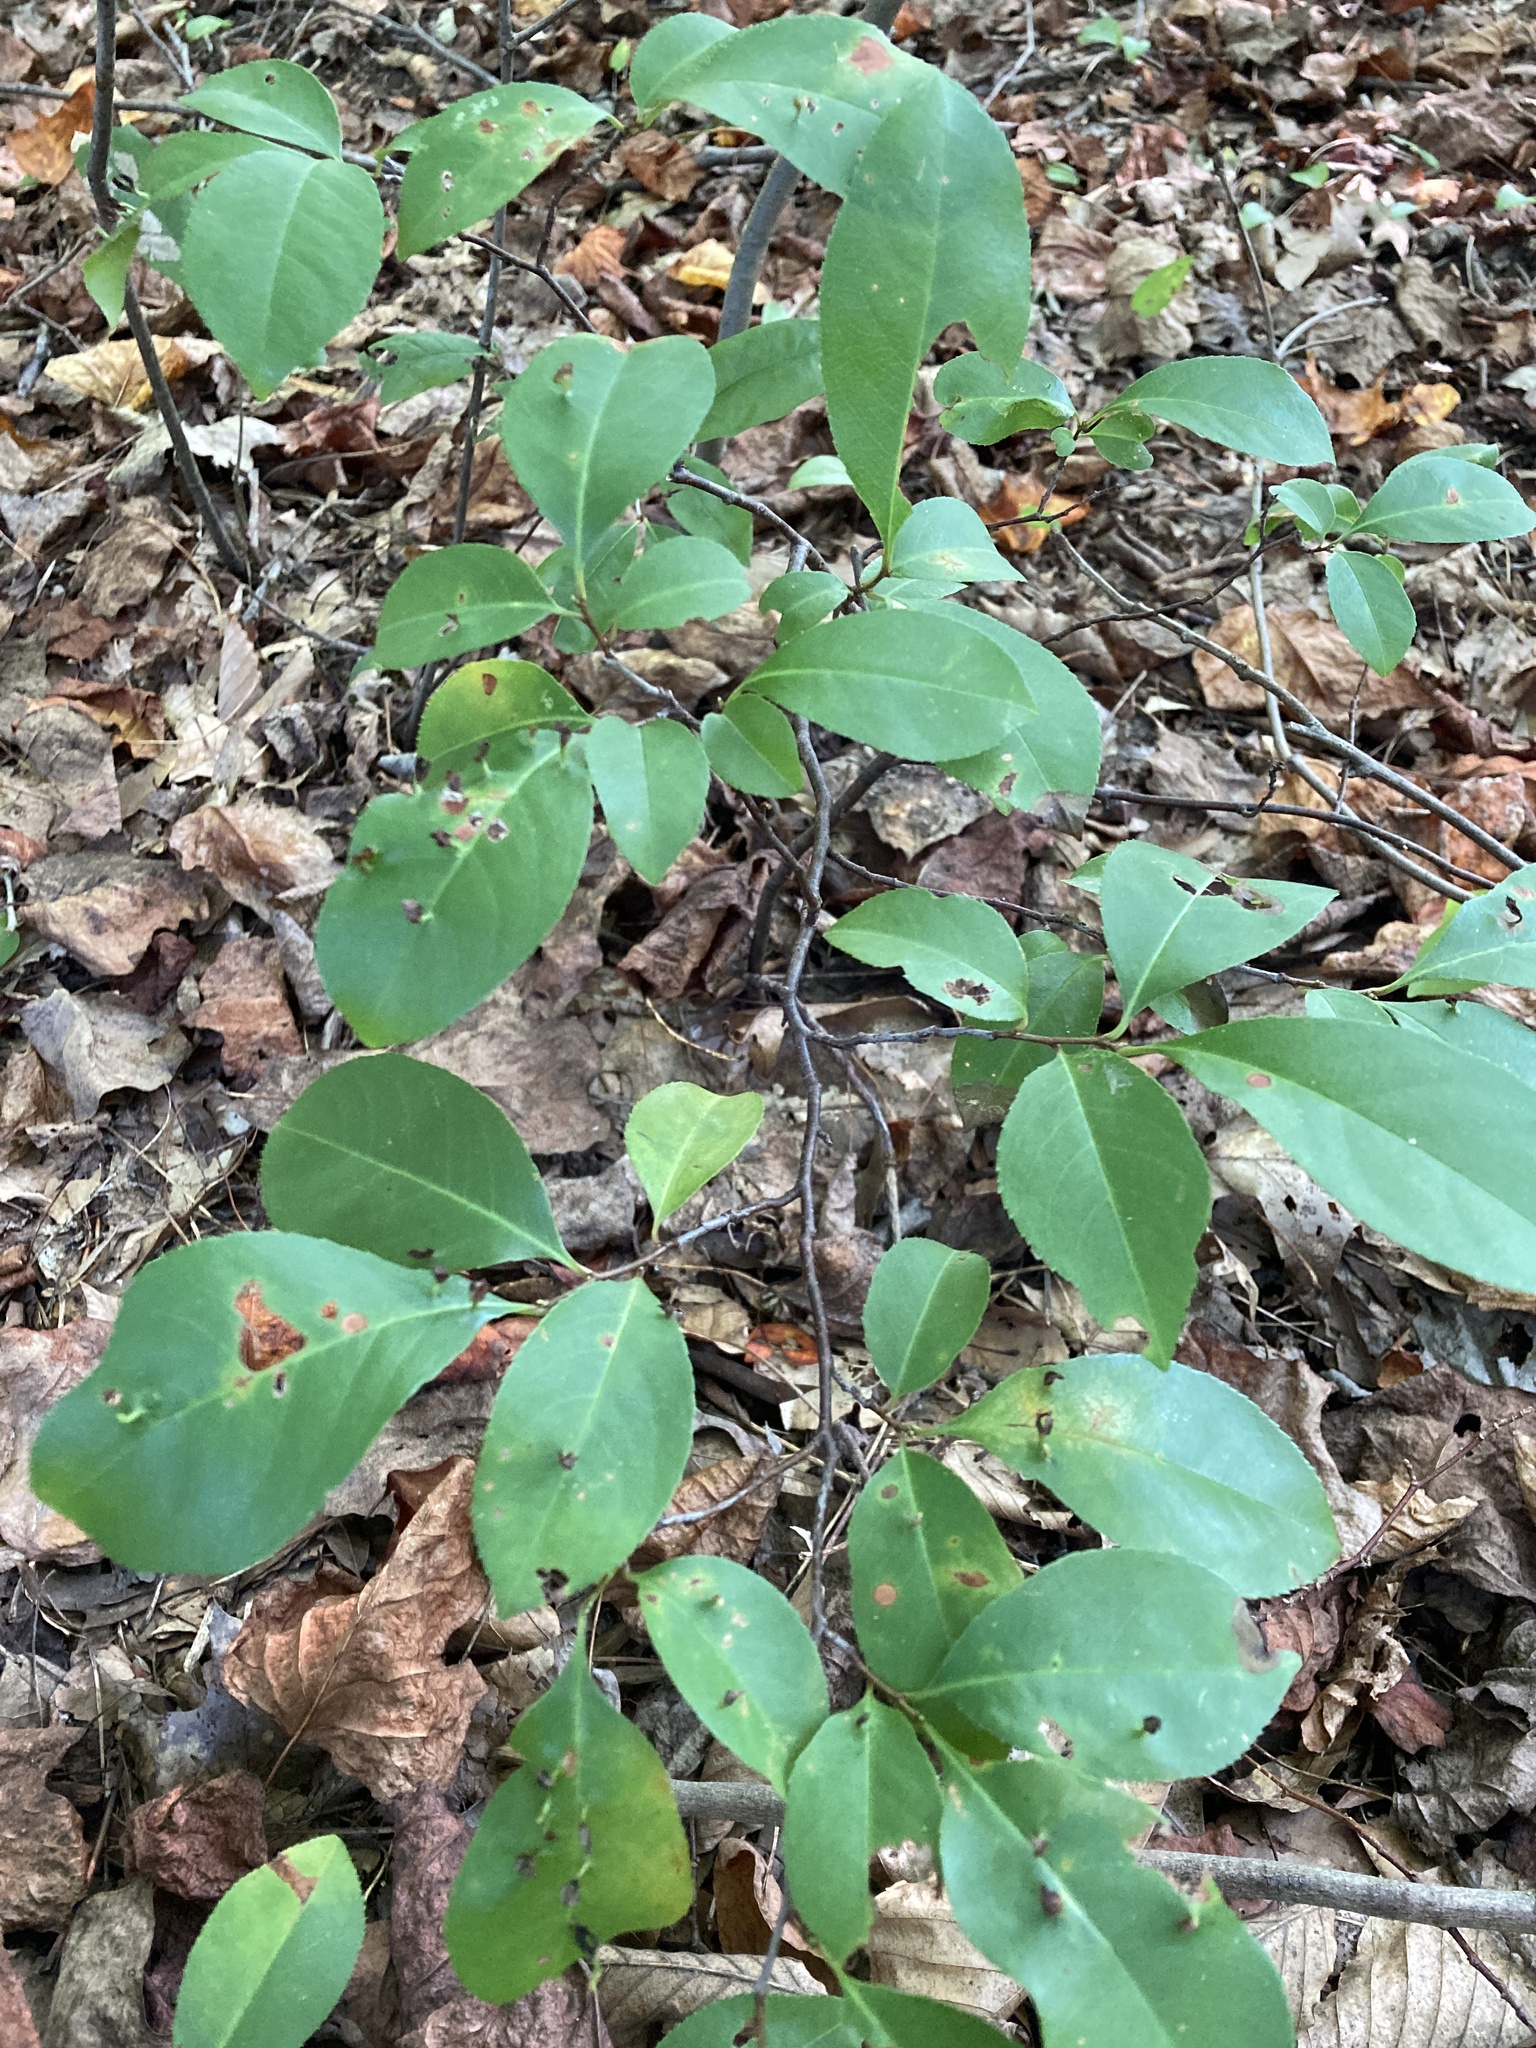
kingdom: Plantae
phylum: Tracheophyta
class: Magnoliopsida
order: Rosales
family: Rosaceae
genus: Prunus
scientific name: Prunus serotina
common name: Black cherry
